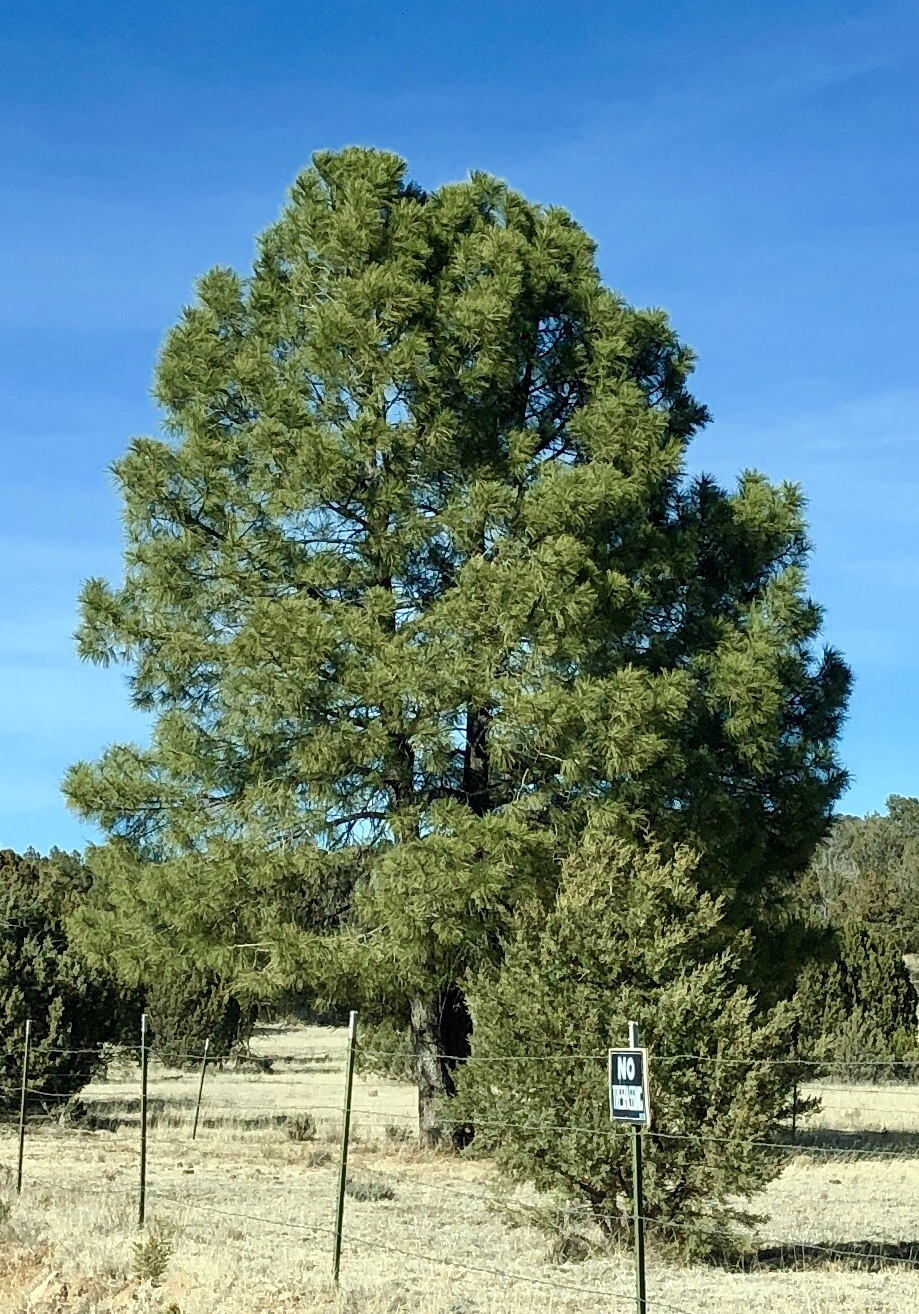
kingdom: Plantae
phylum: Tracheophyta
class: Pinopsida
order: Pinales
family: Pinaceae
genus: Pinus
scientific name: Pinus ponderosa
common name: Western yellow-pine
